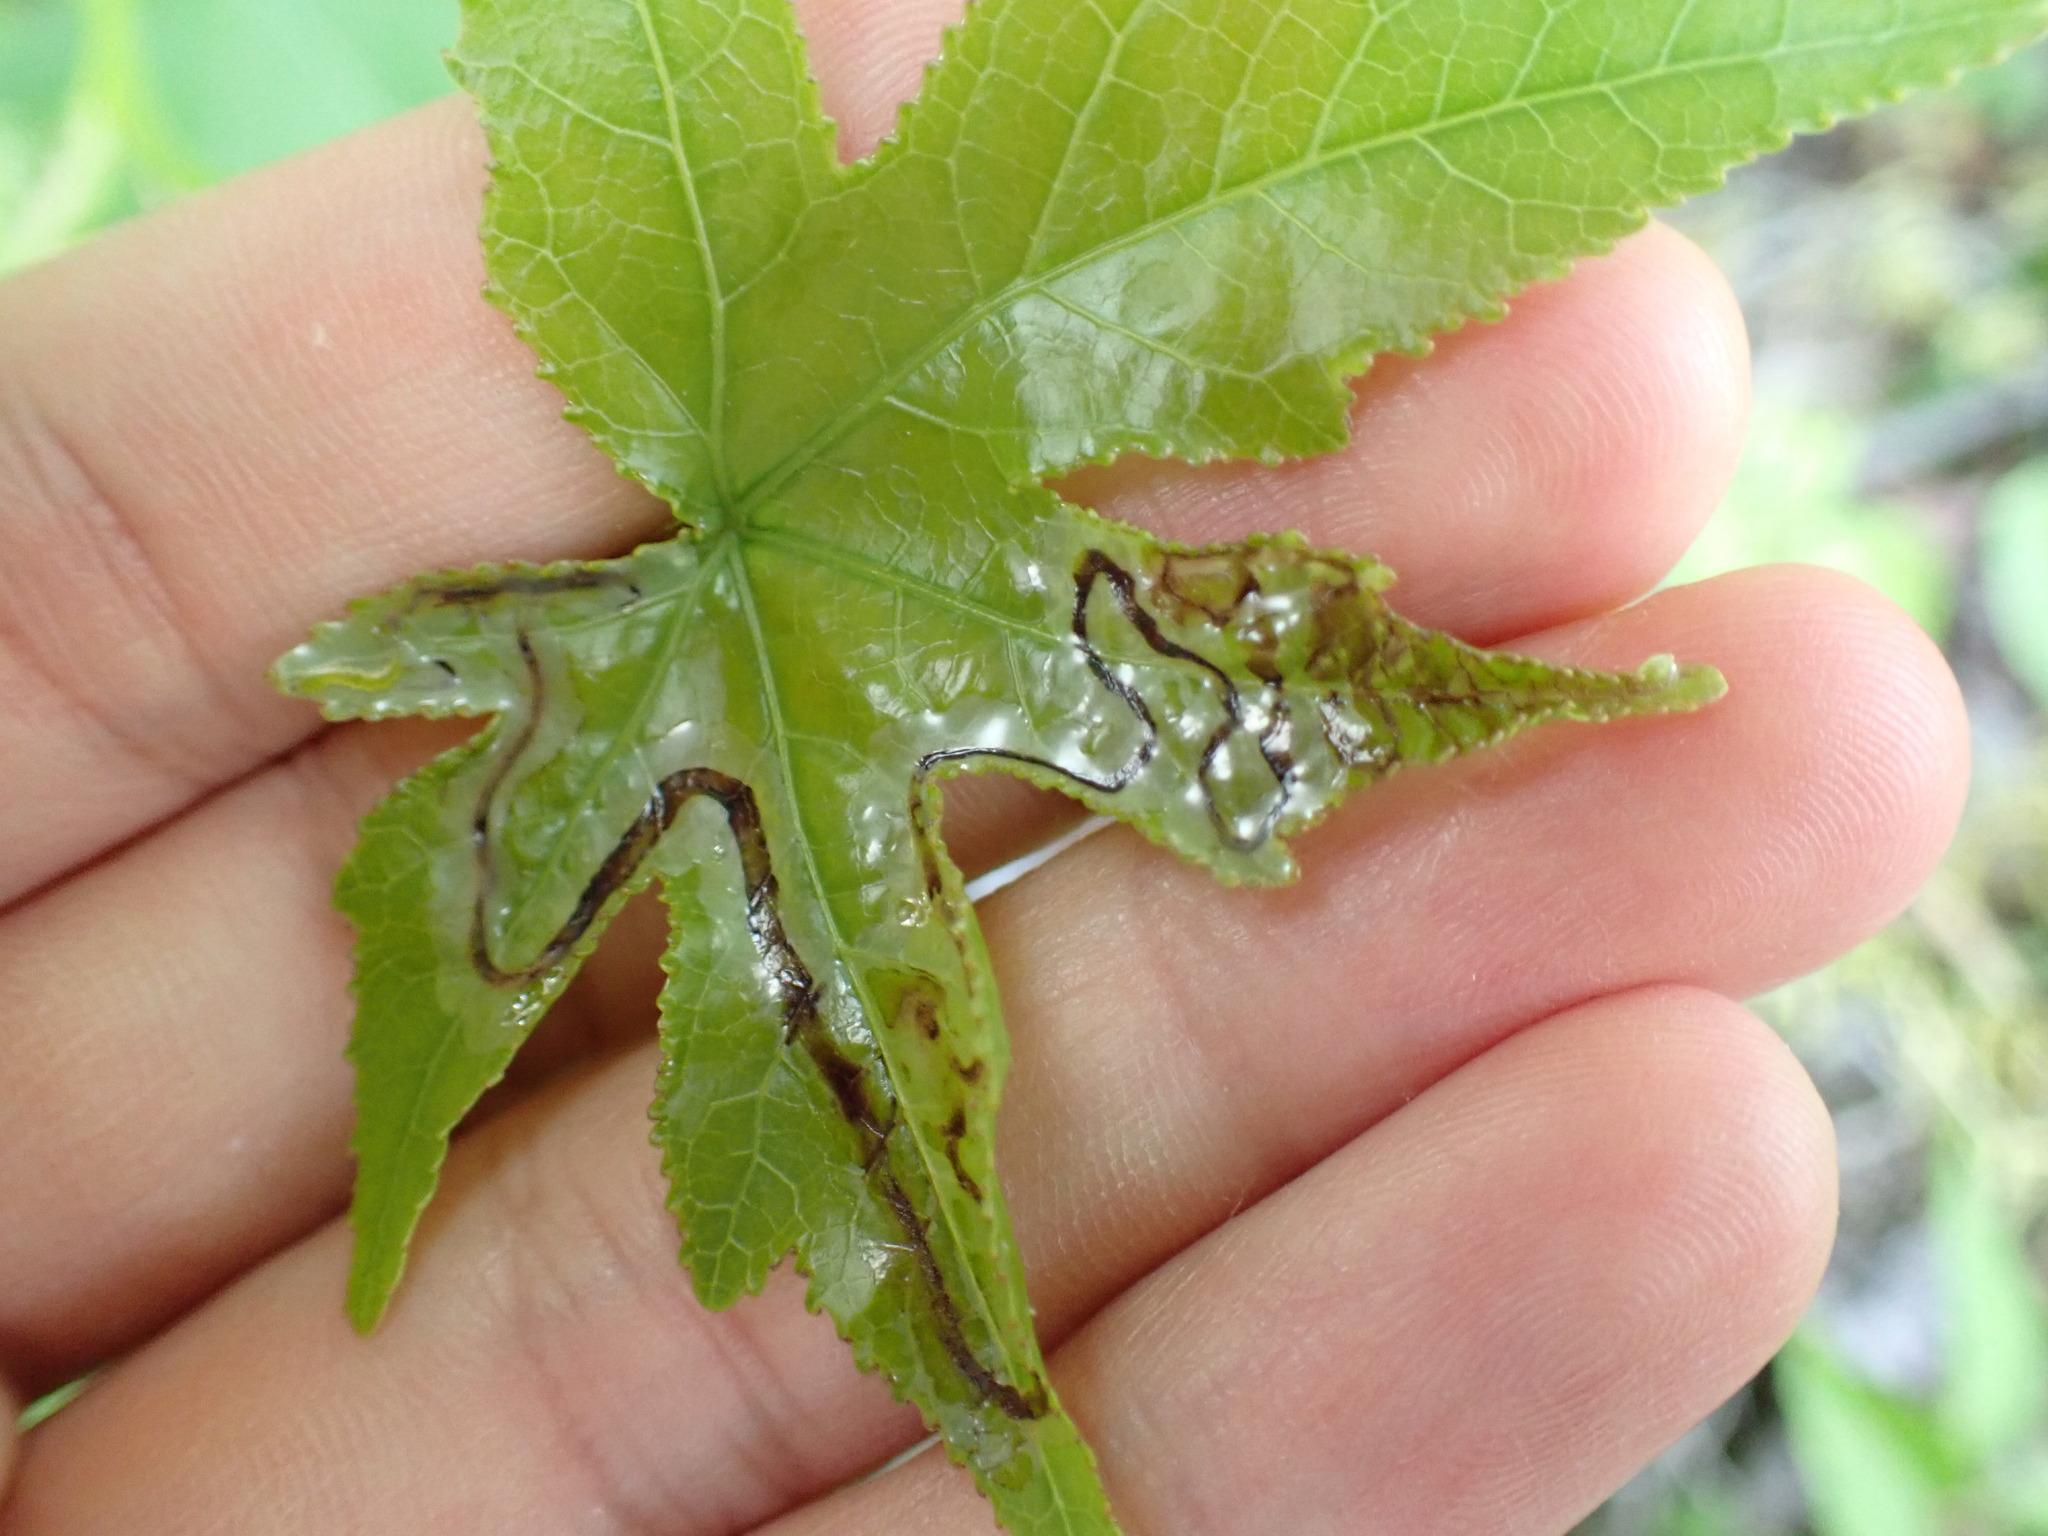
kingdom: Animalia
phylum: Arthropoda
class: Insecta
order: Lepidoptera
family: Gracillariidae
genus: Phyllocnistis
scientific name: Phyllocnistis liquidambarisella
